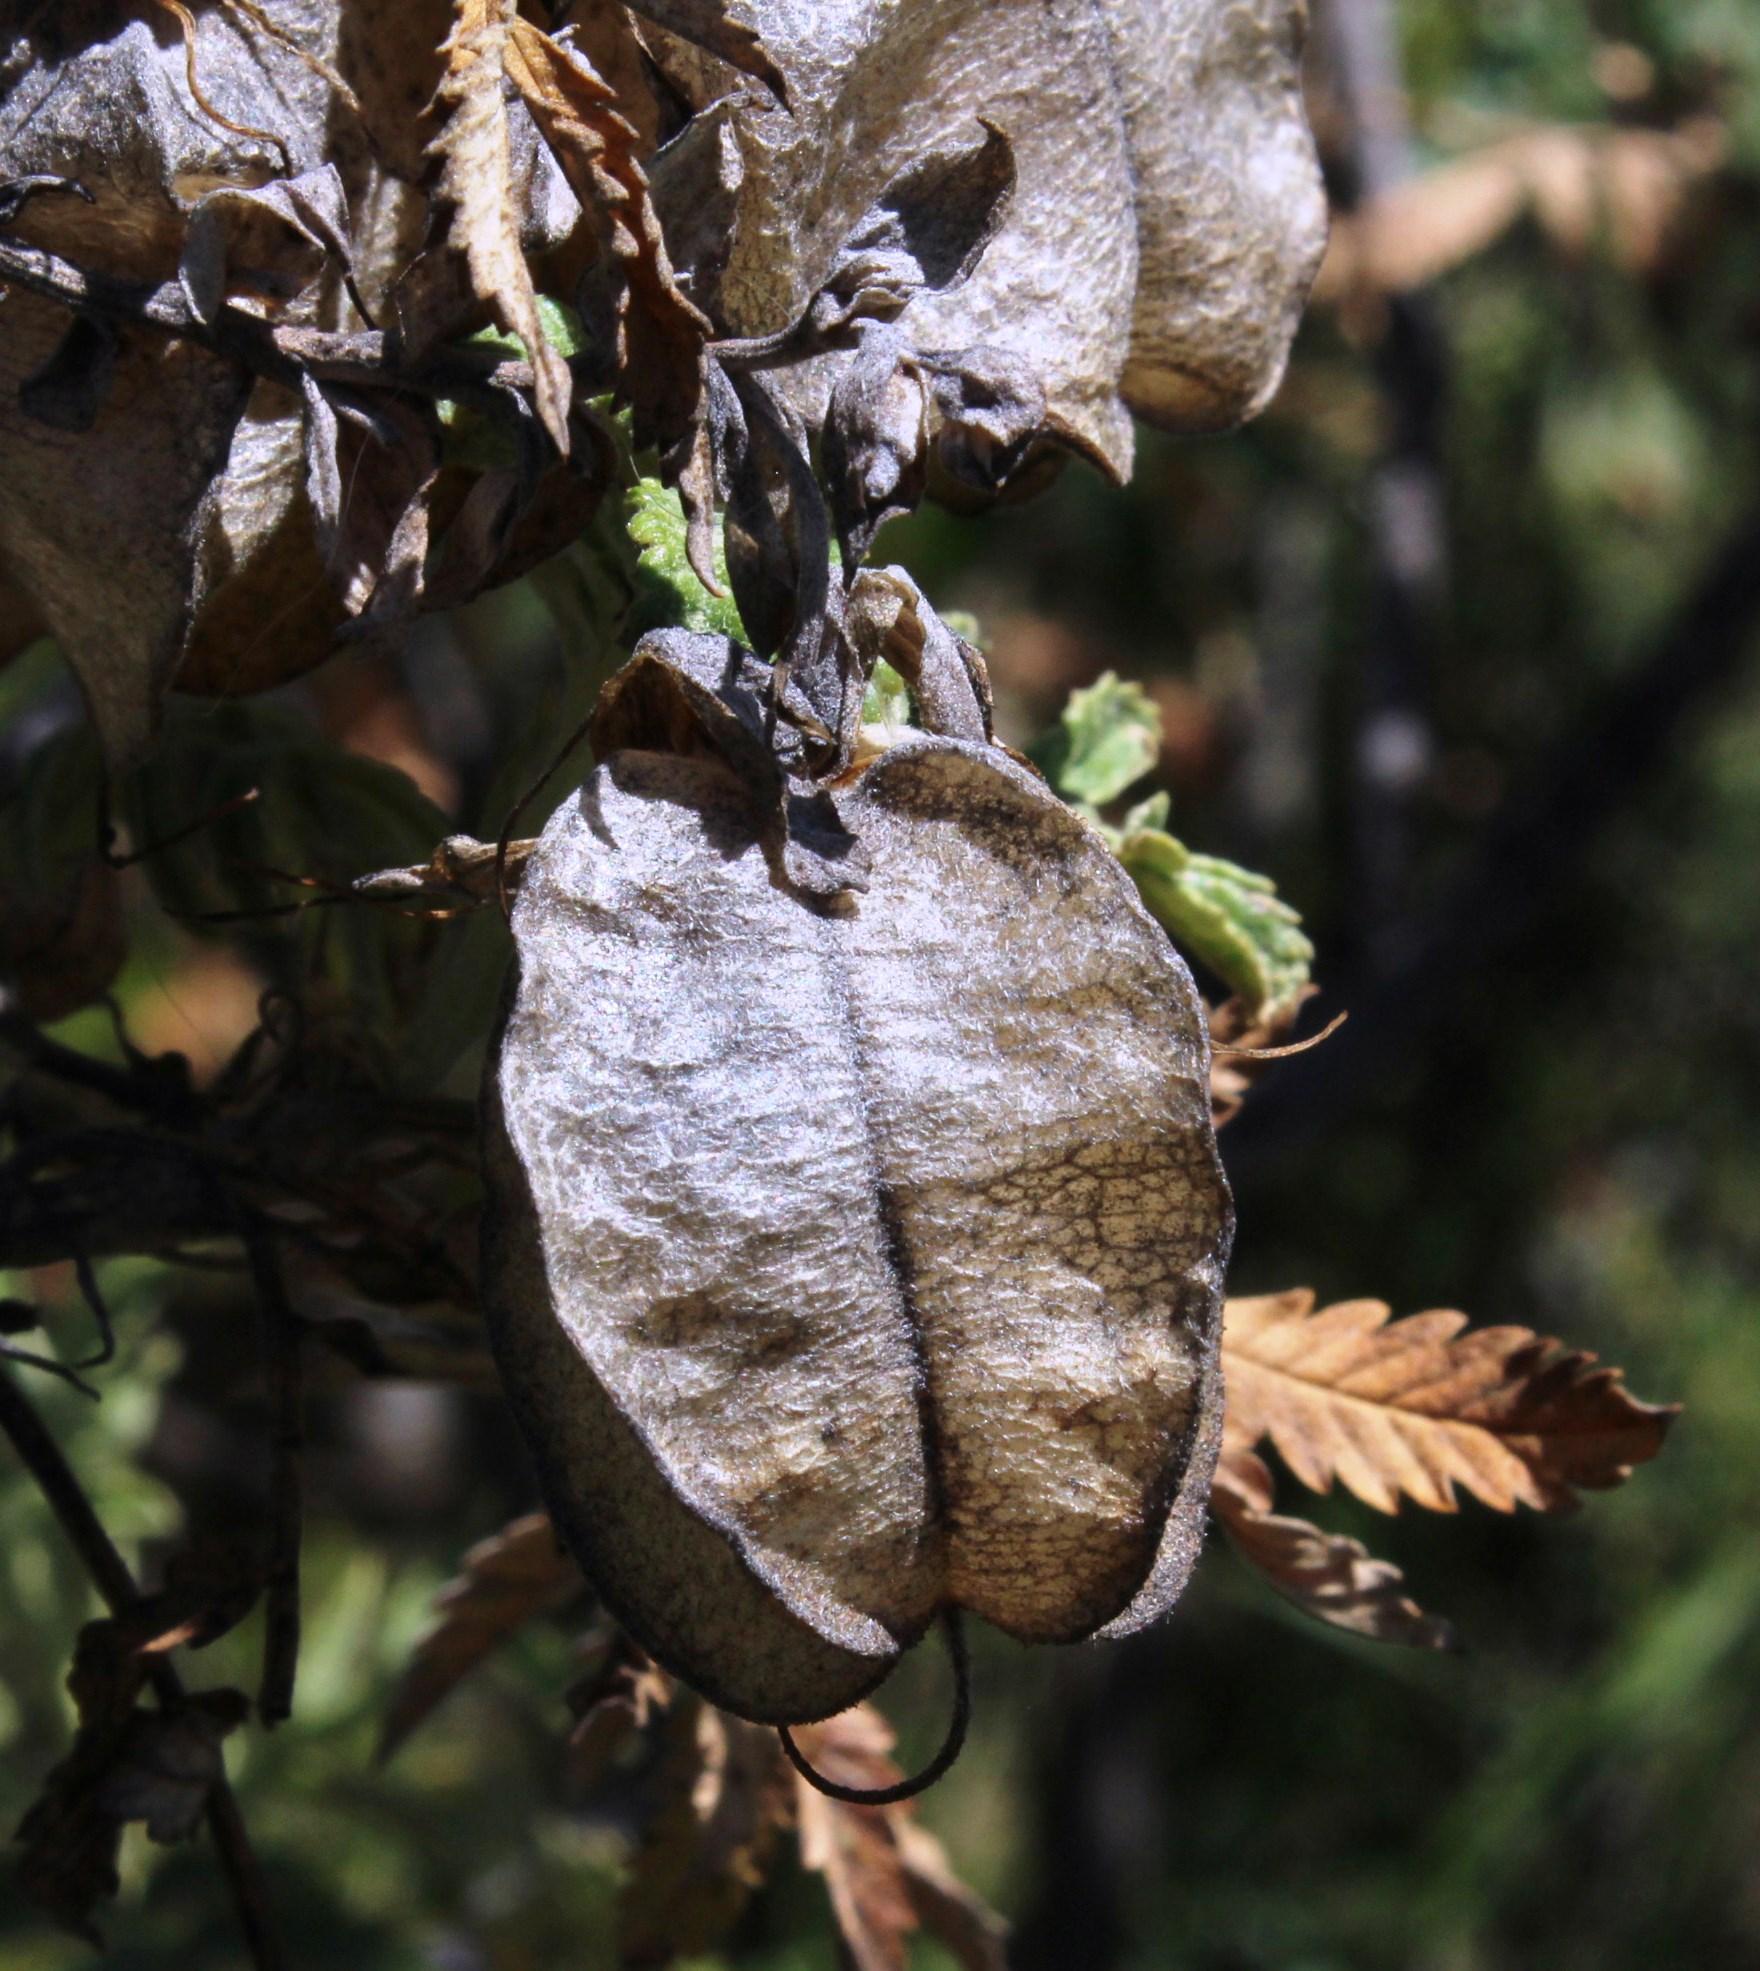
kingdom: Plantae
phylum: Tracheophyta
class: Magnoliopsida
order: Geraniales
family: Melianthaceae
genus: Melianthus
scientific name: Melianthus comosus
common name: Touch-me-not
